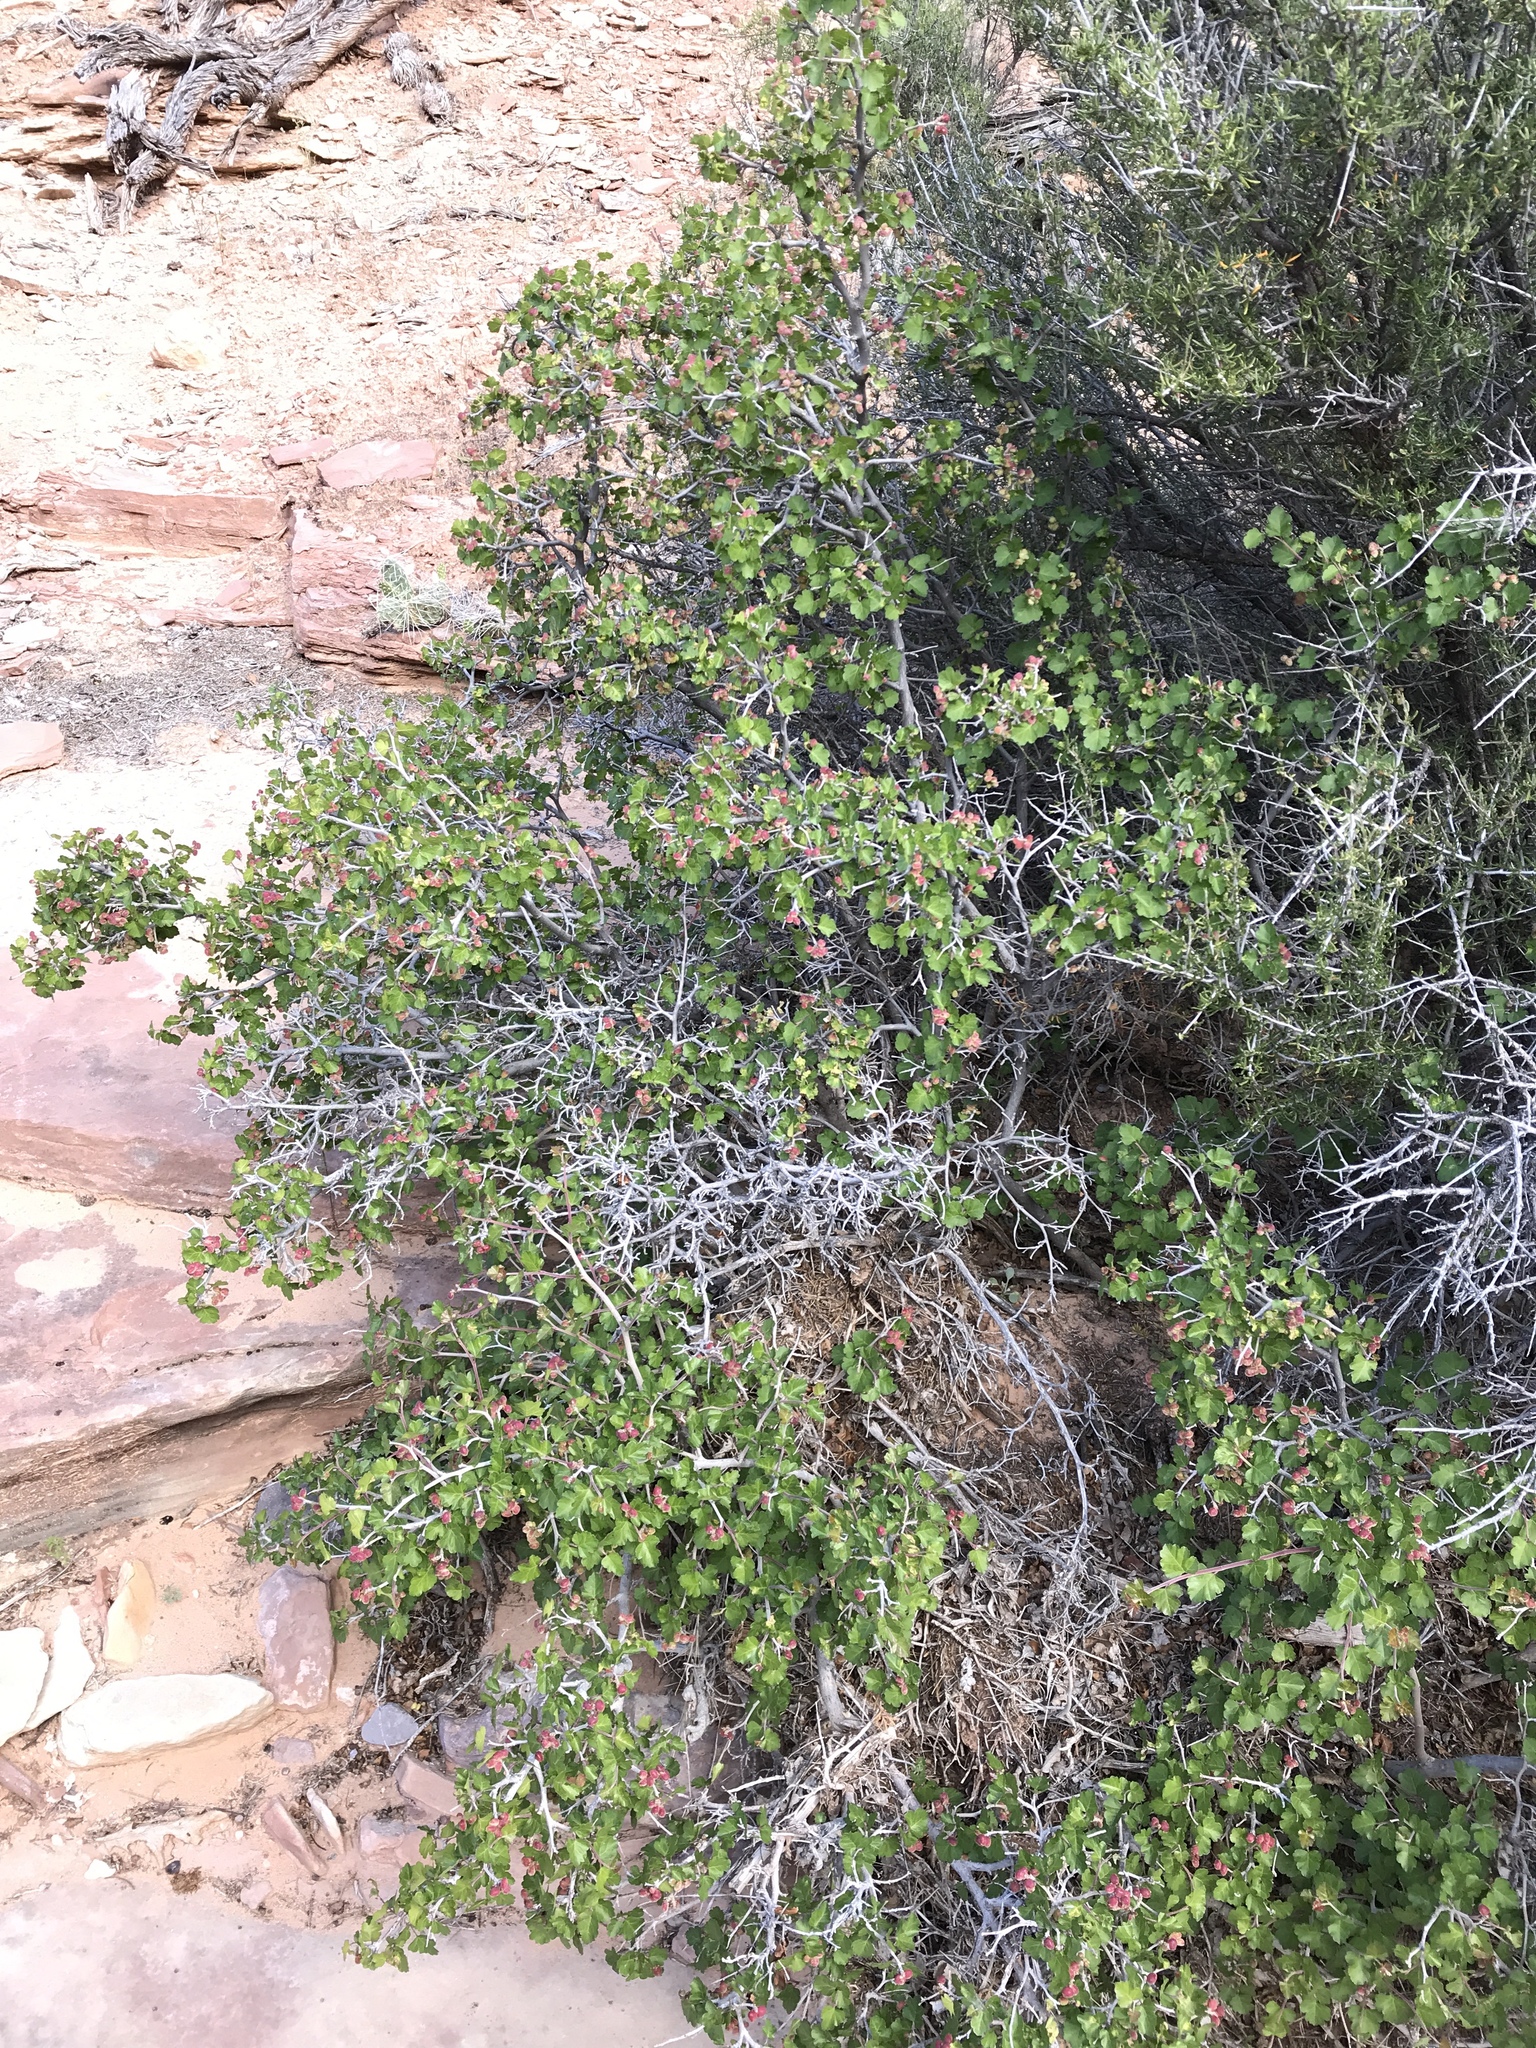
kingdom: Plantae
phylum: Tracheophyta
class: Magnoliopsida
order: Sapindales
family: Anacardiaceae
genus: Rhus
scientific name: Rhus aromatica
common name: Aromatic sumac
